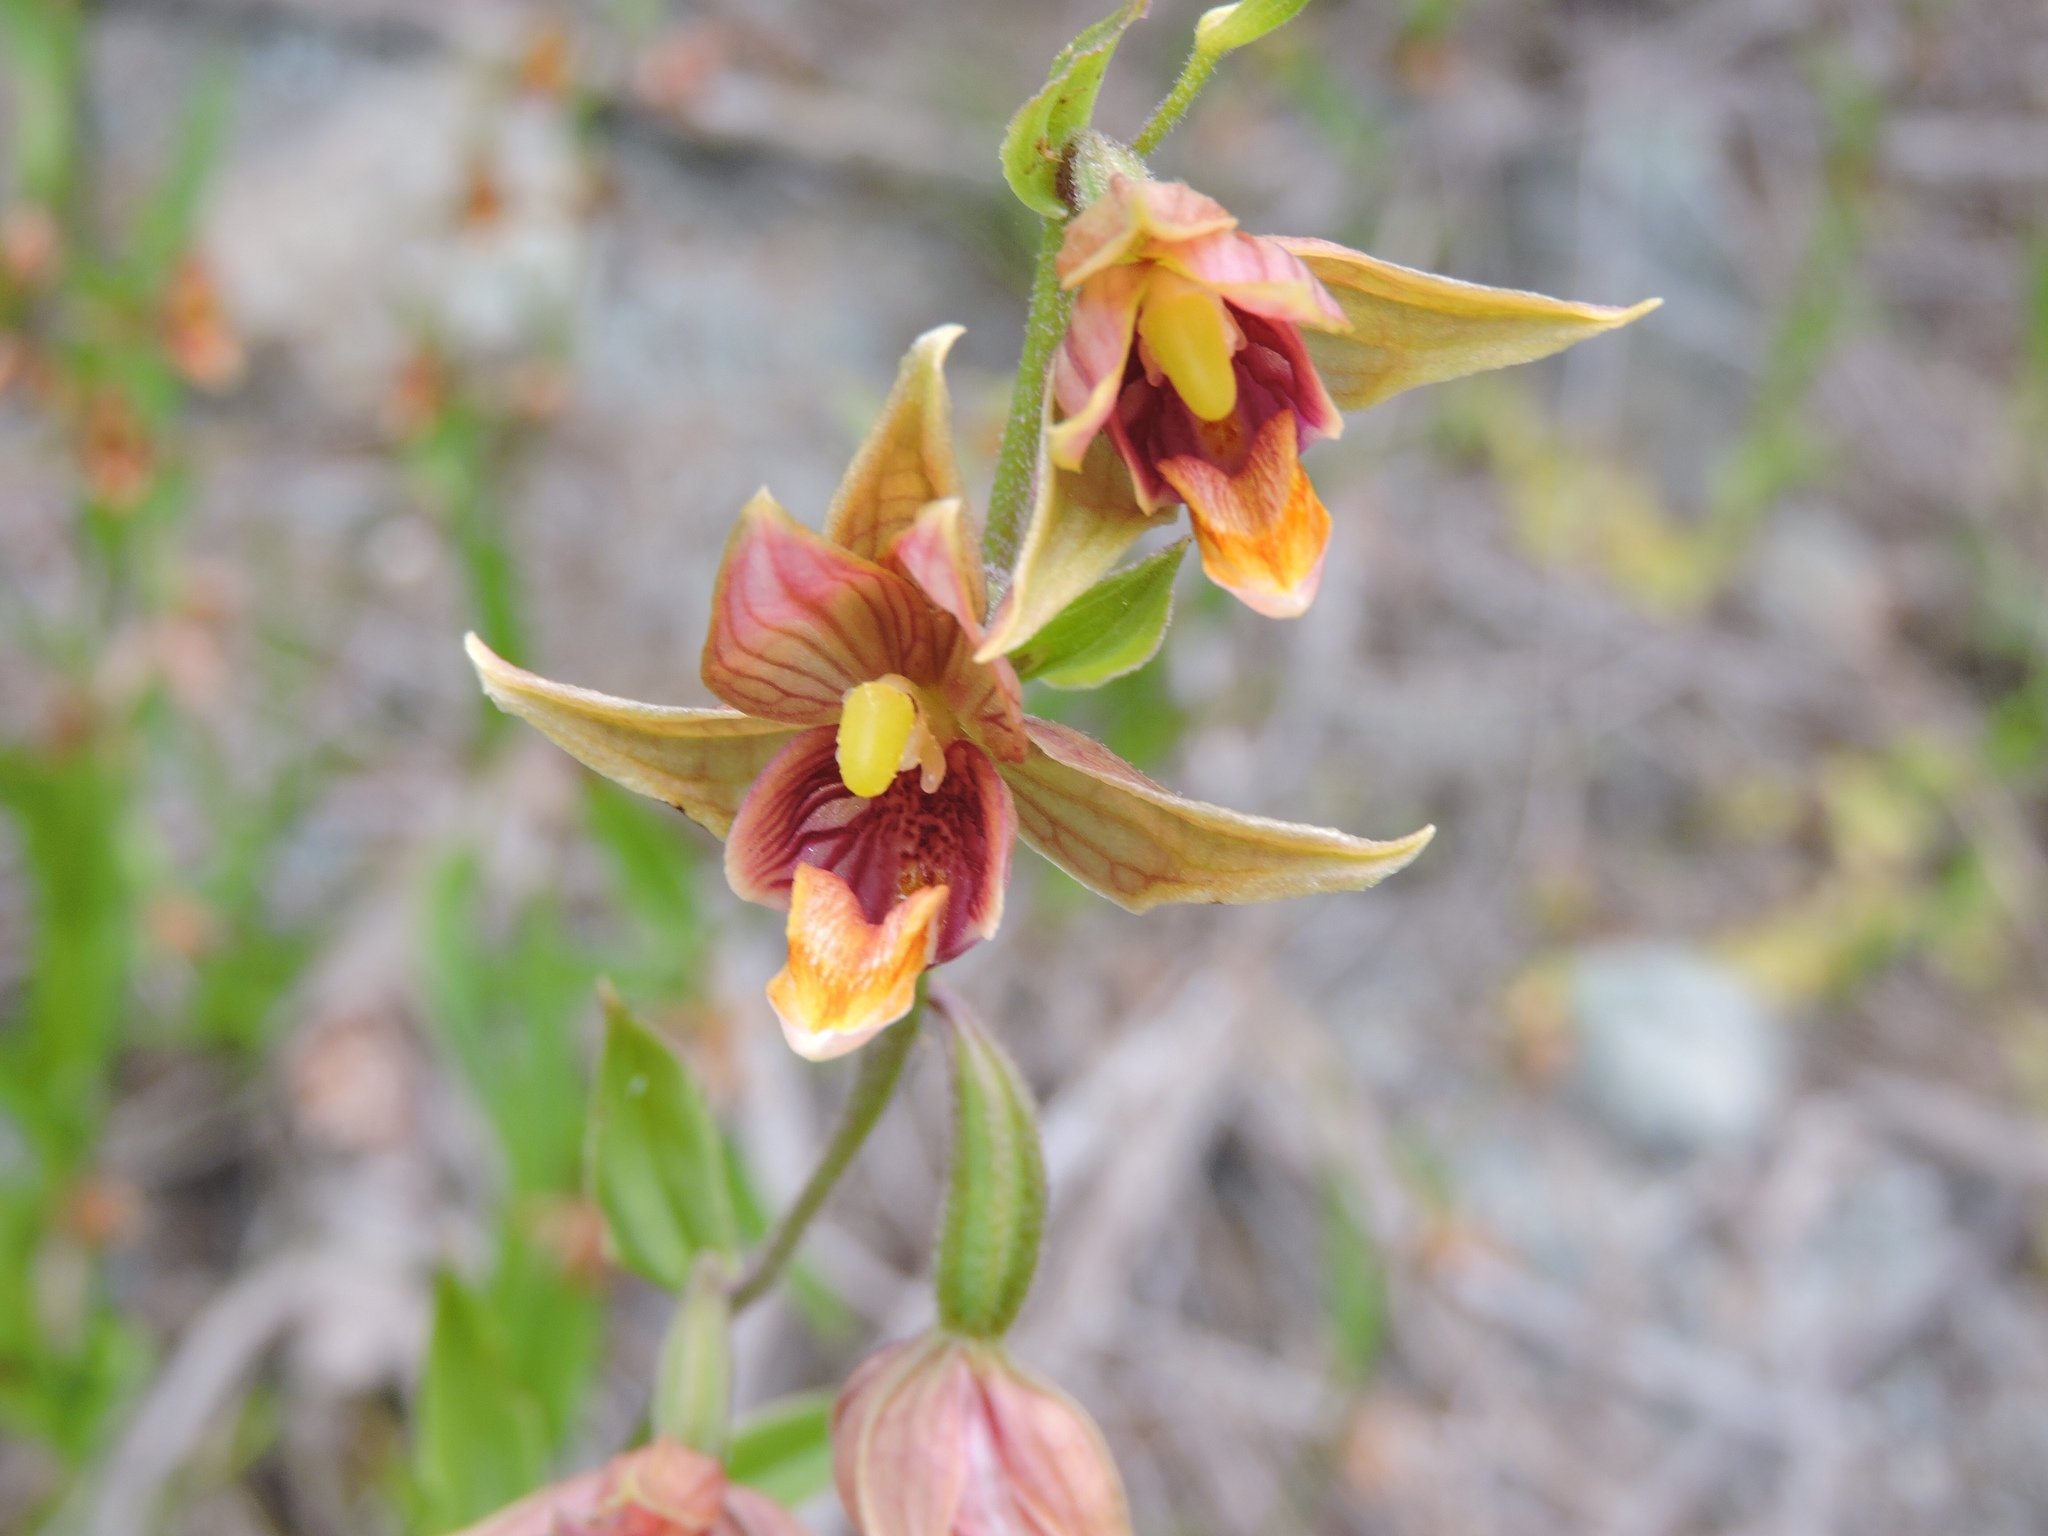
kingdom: Plantae
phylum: Tracheophyta
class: Liliopsida
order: Asparagales
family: Orchidaceae
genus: Epipactis
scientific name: Epipactis gigantea
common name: Chatterbox
